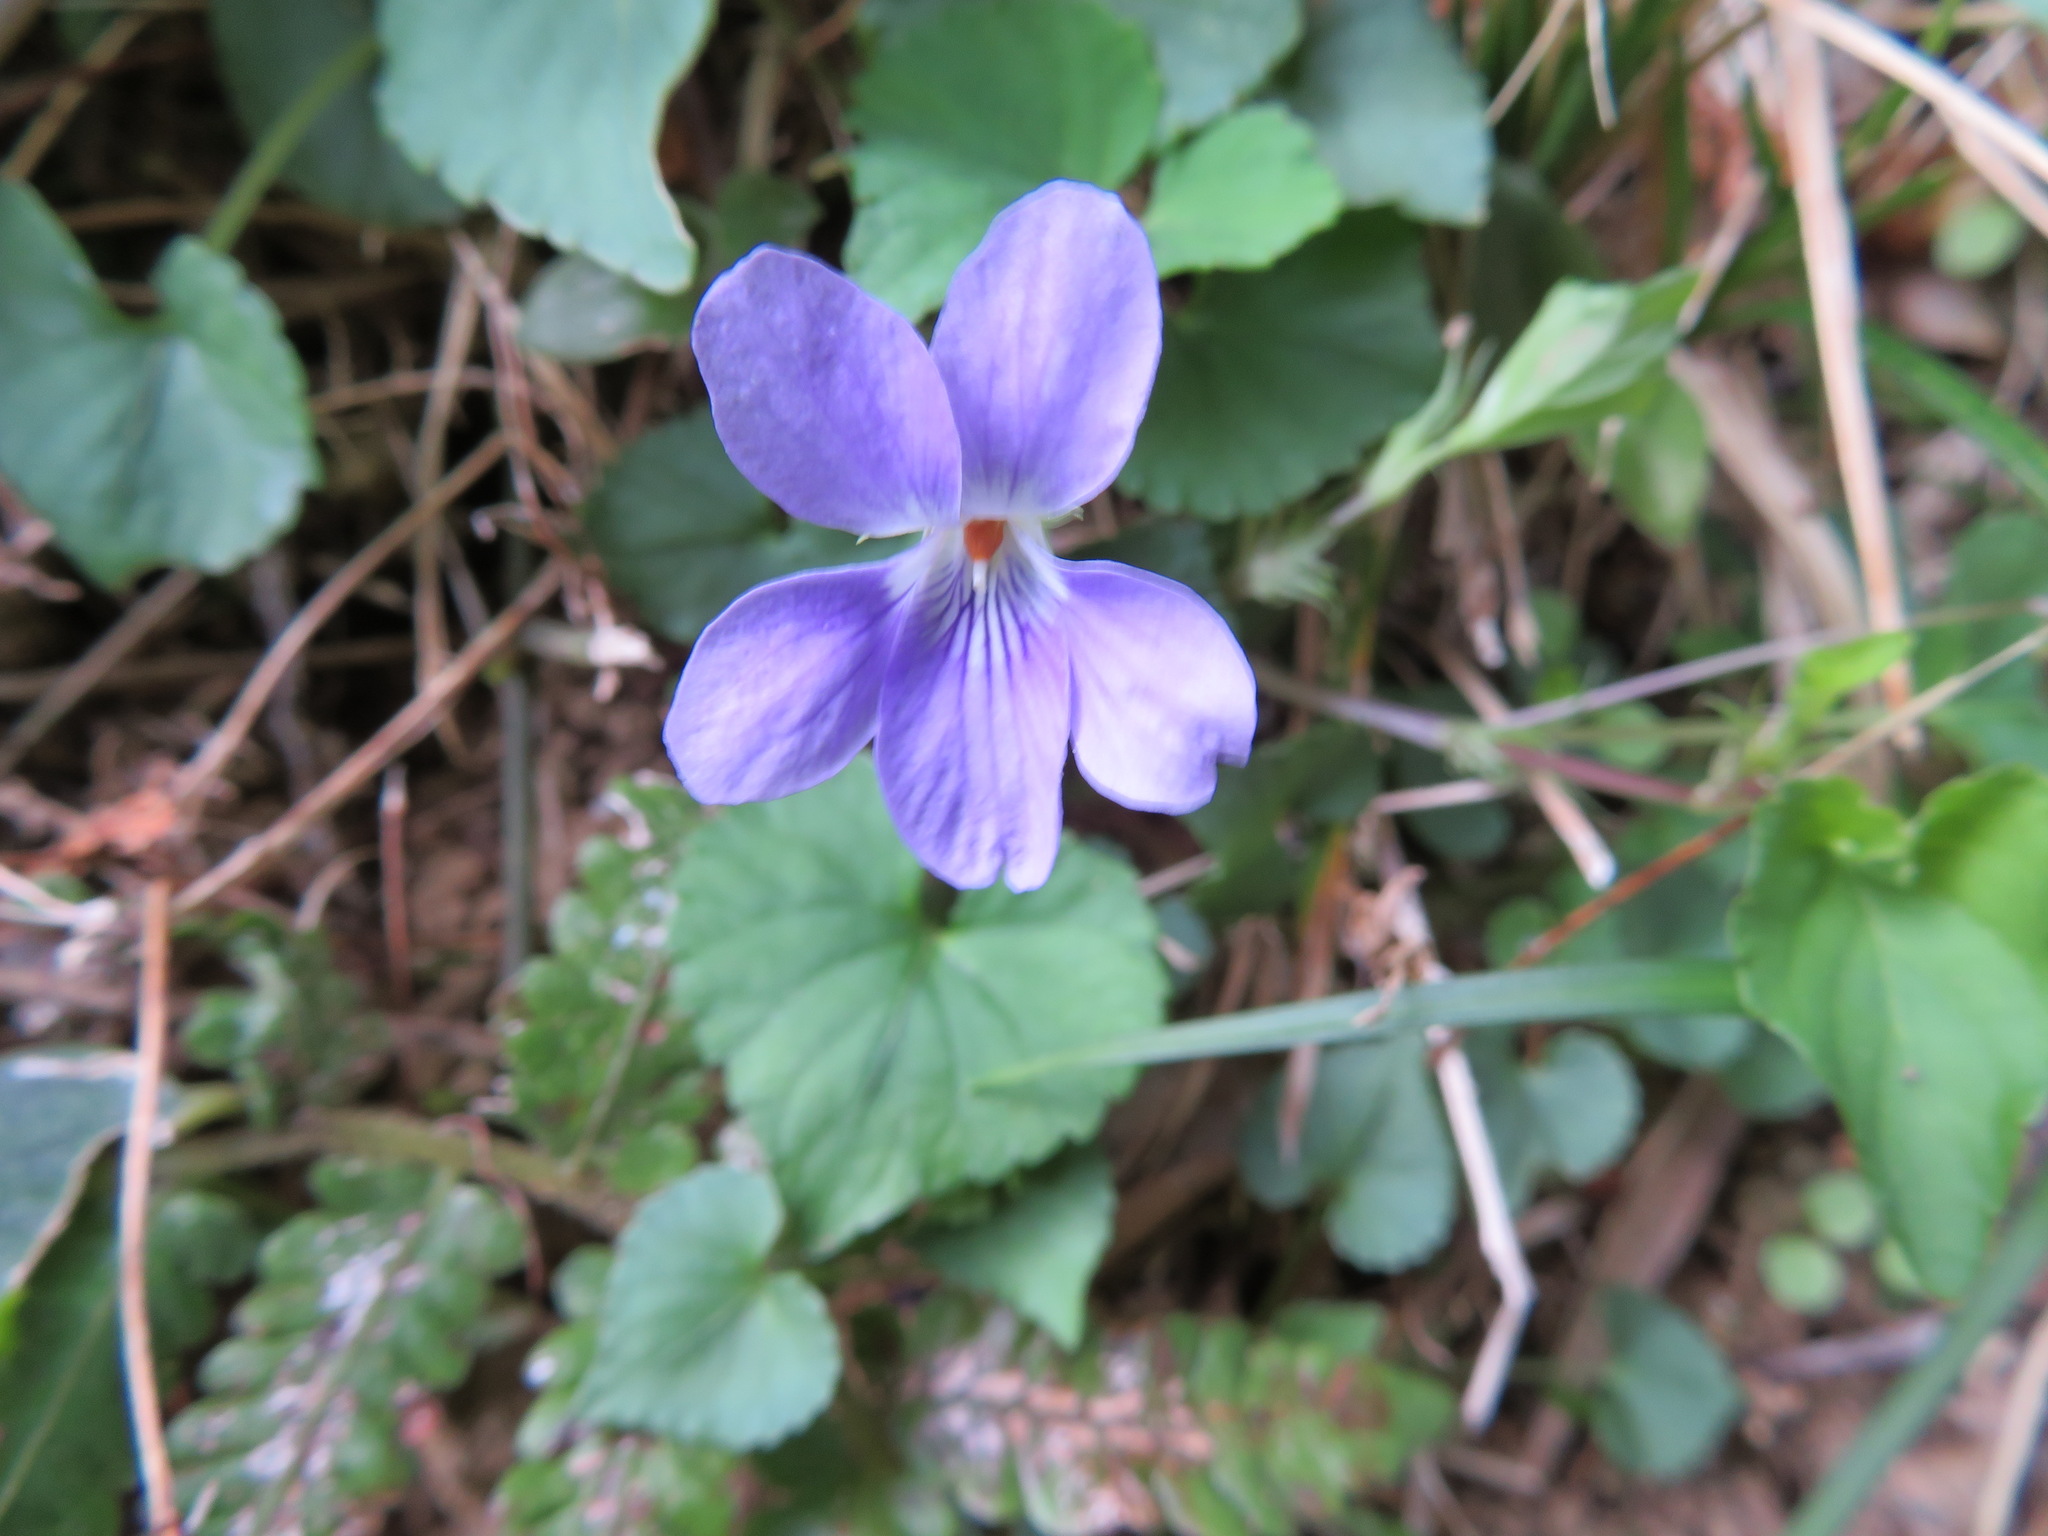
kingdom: Plantae
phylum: Tracheophyta
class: Magnoliopsida
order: Malpighiales
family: Violaceae
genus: Viola
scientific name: Viola grypoceras
